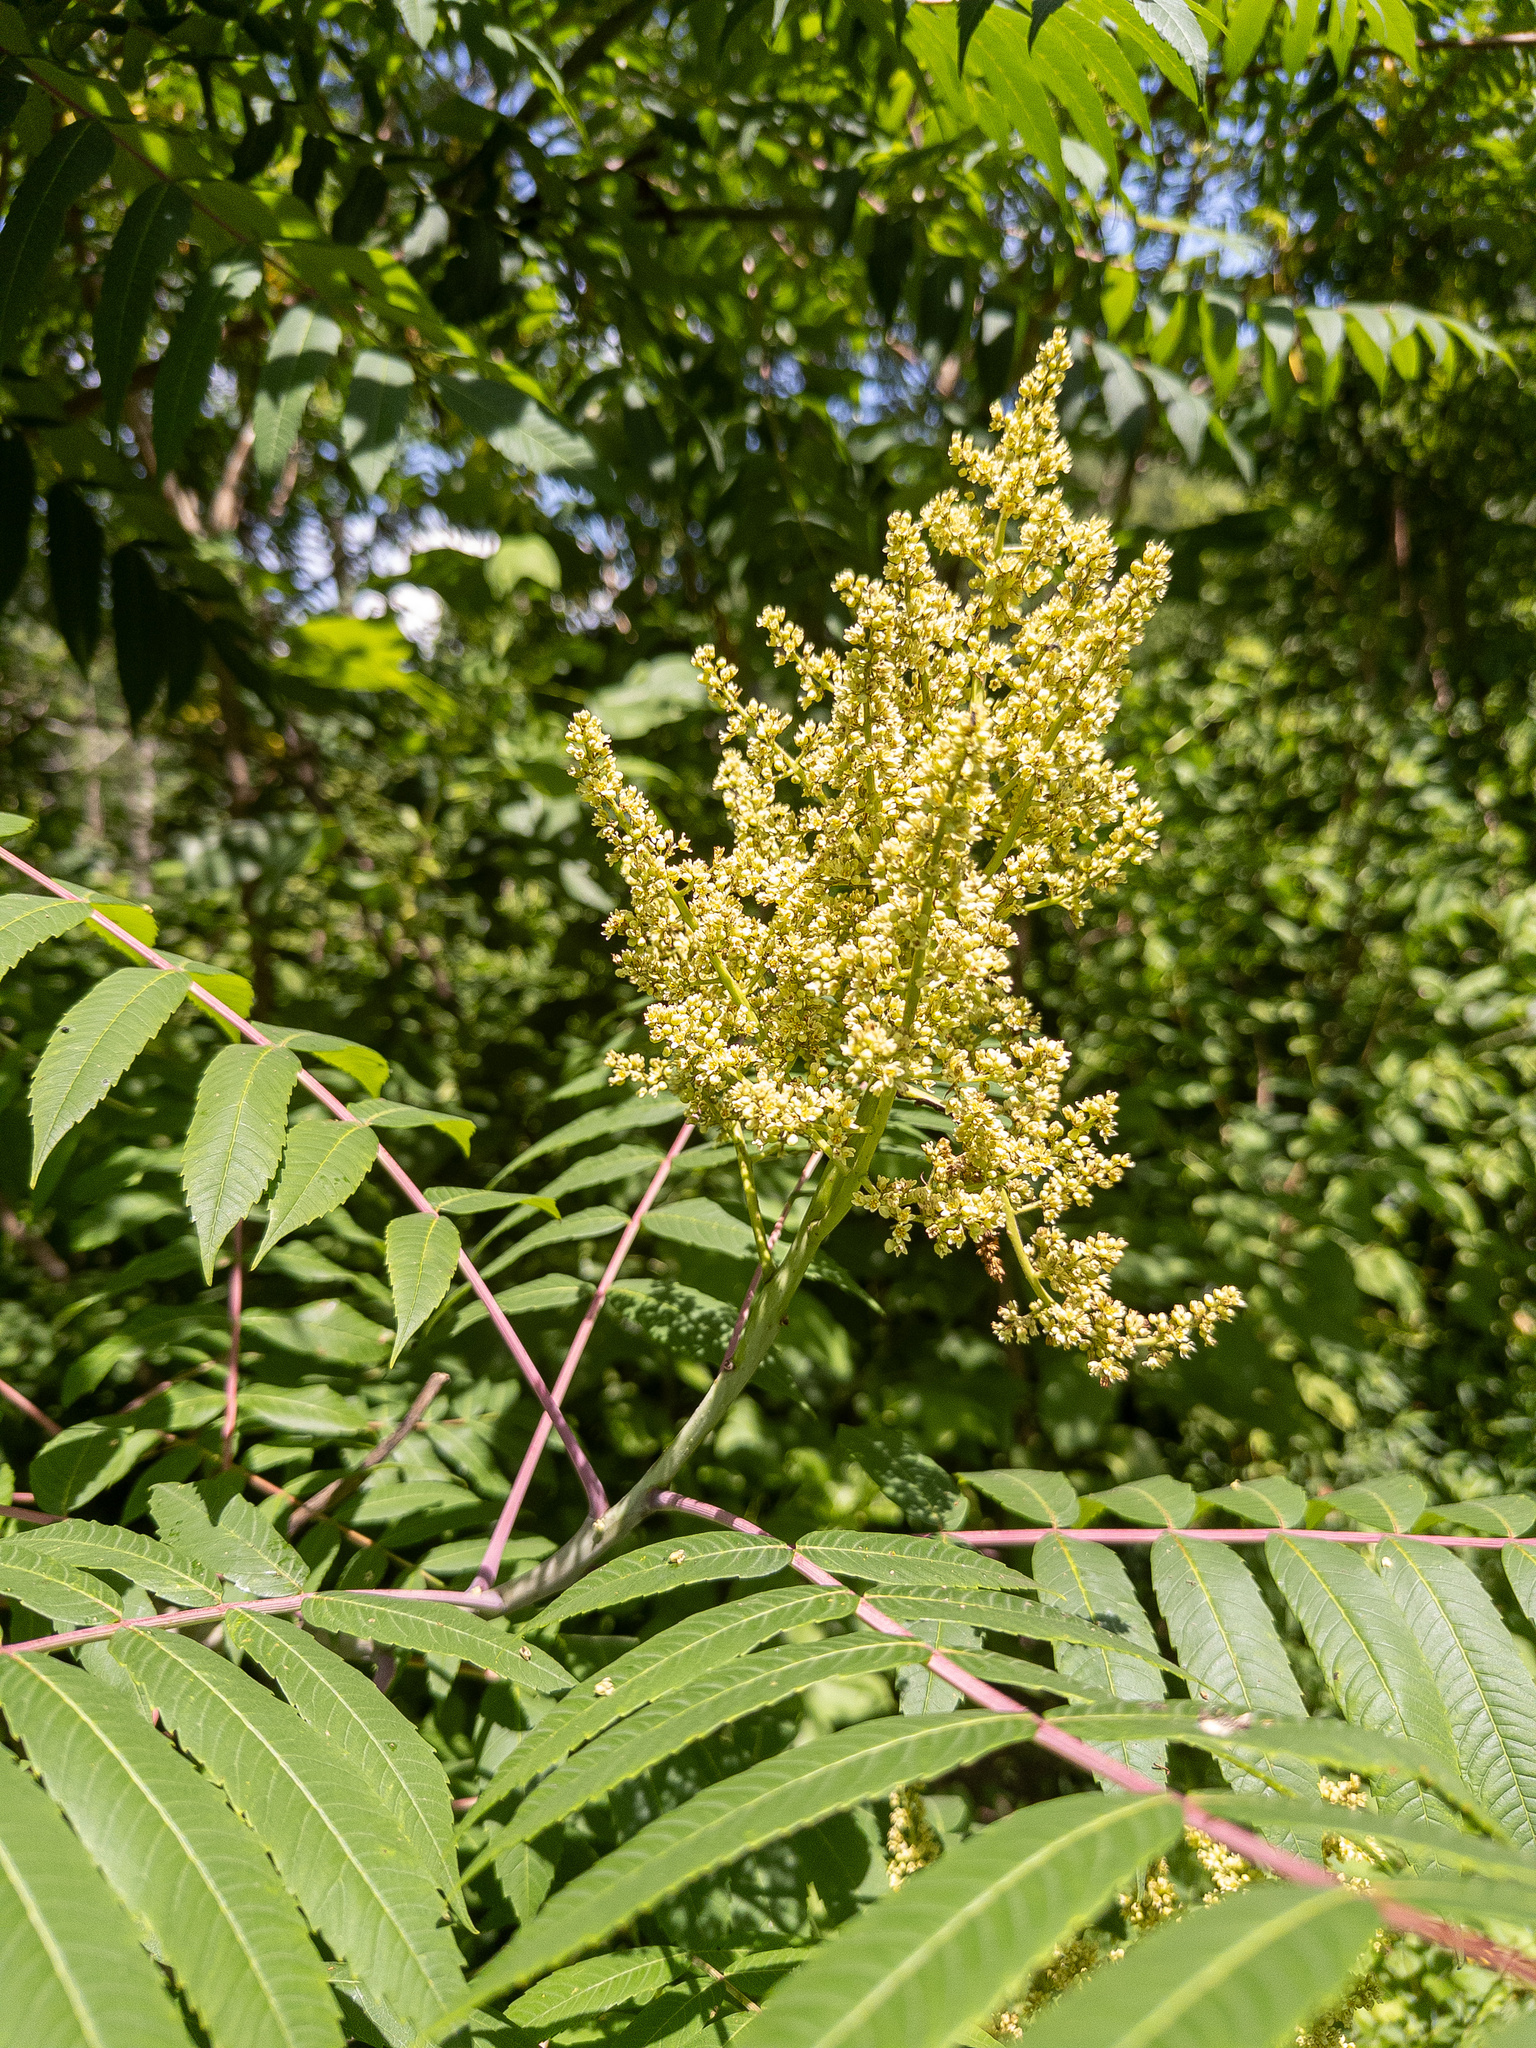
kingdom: Plantae
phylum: Tracheophyta
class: Magnoliopsida
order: Sapindales
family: Anacardiaceae
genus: Rhus
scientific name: Rhus glabra
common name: Scarlet sumac
